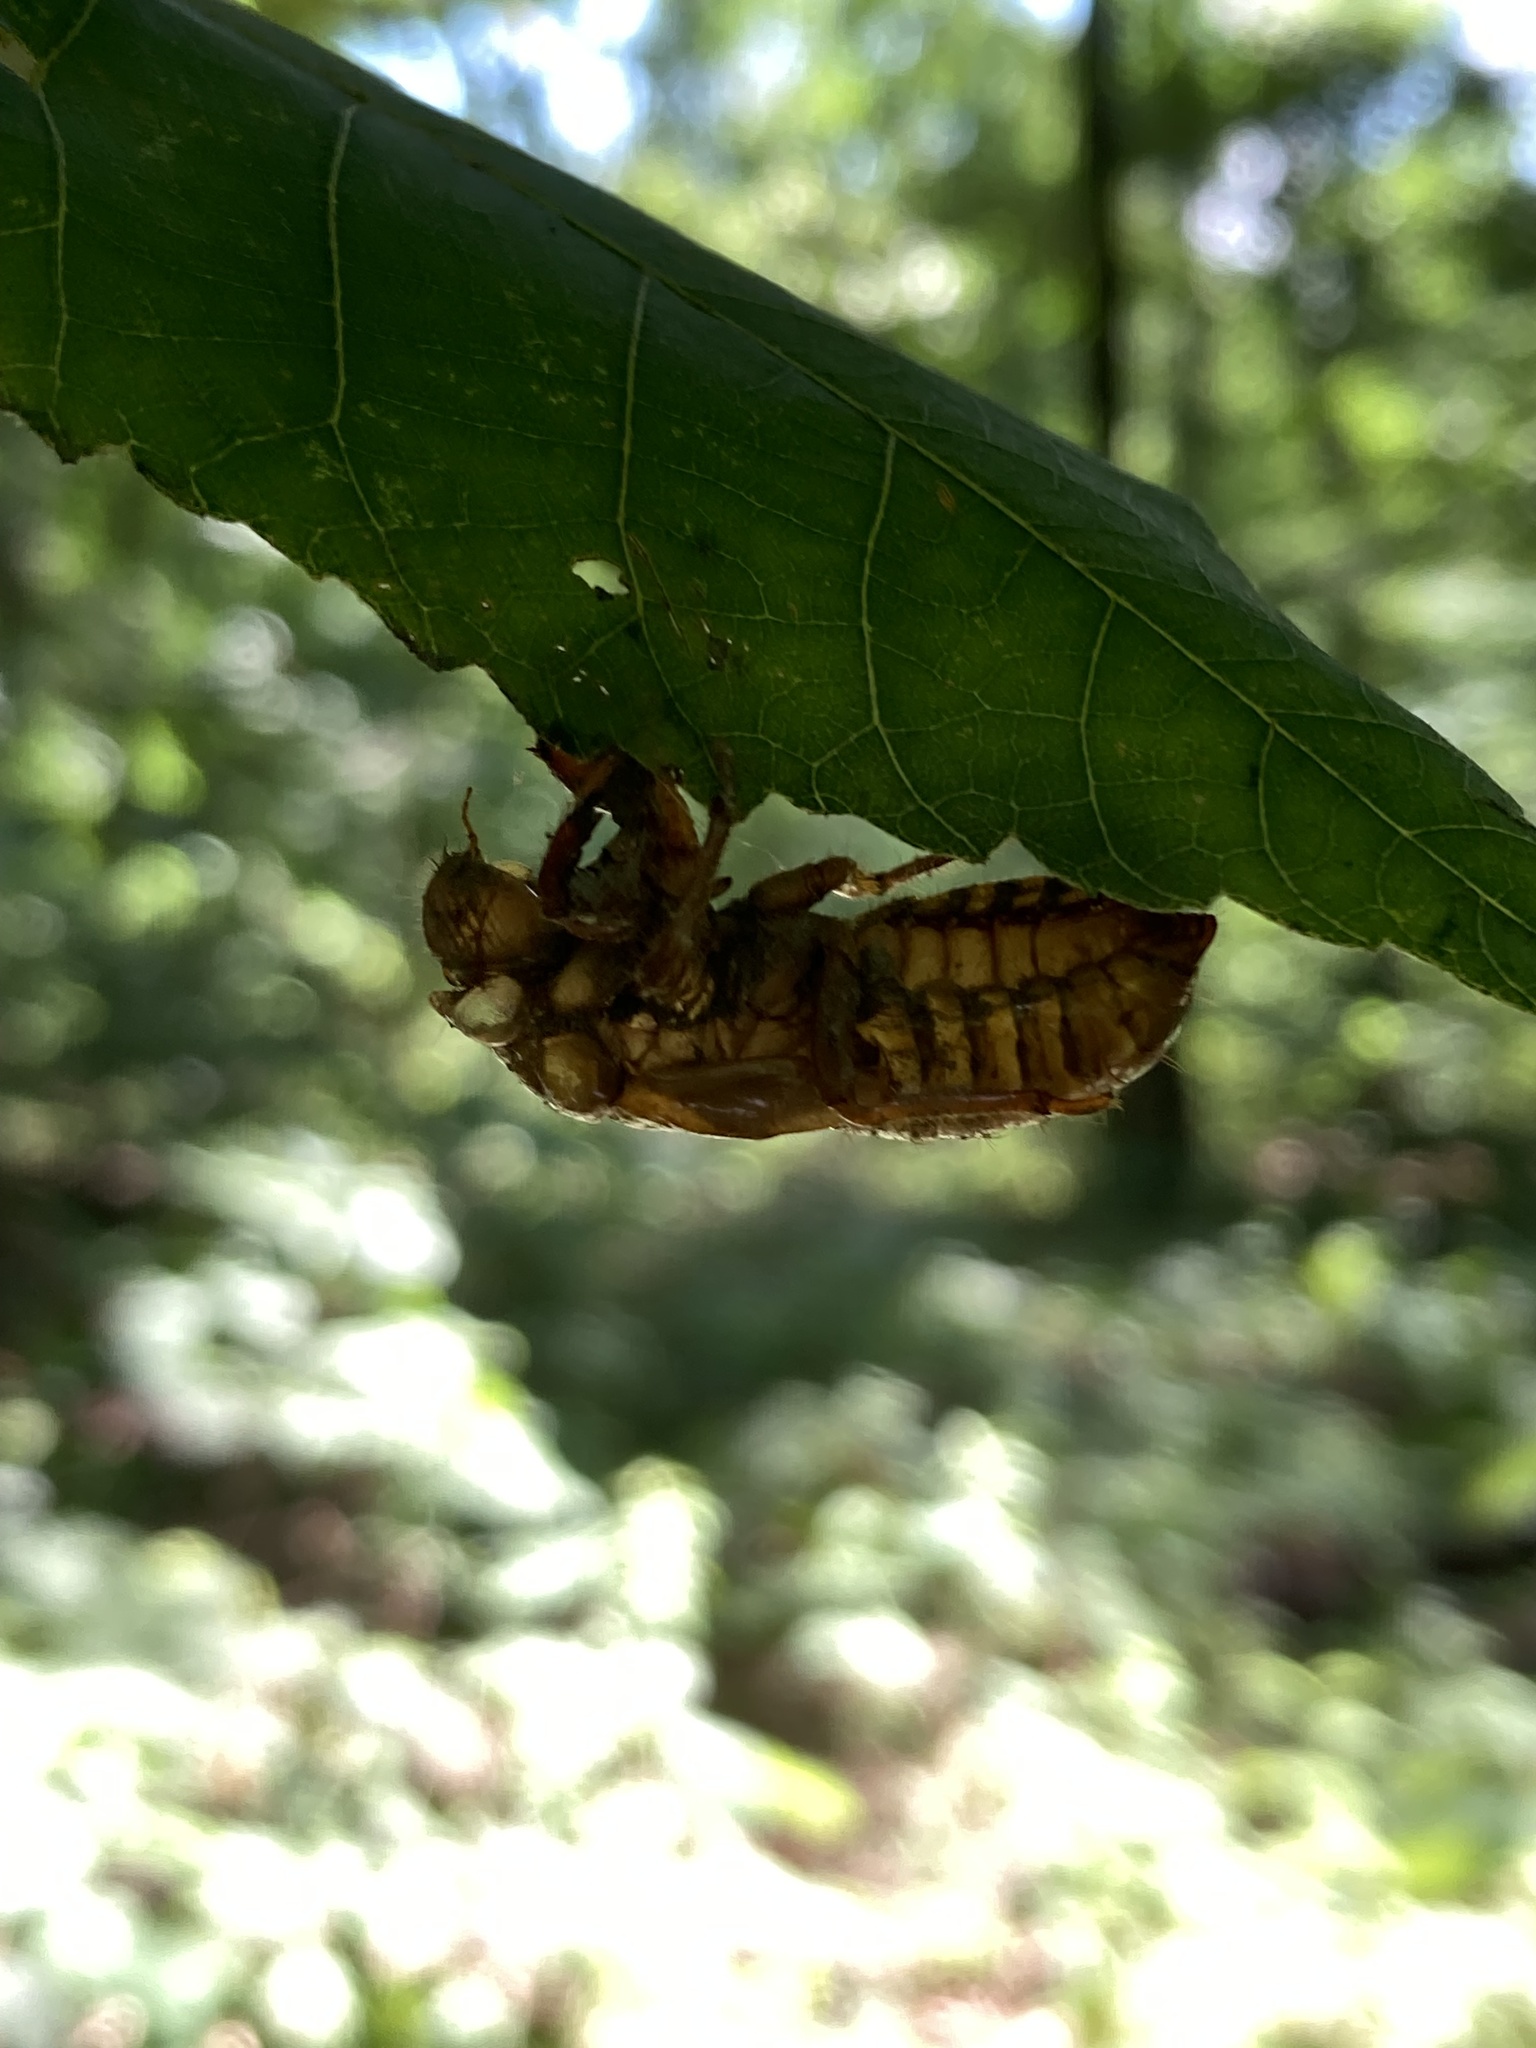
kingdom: Animalia
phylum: Arthropoda
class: Insecta
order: Hemiptera
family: Cicadidae
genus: Magicicada
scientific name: Magicicada
